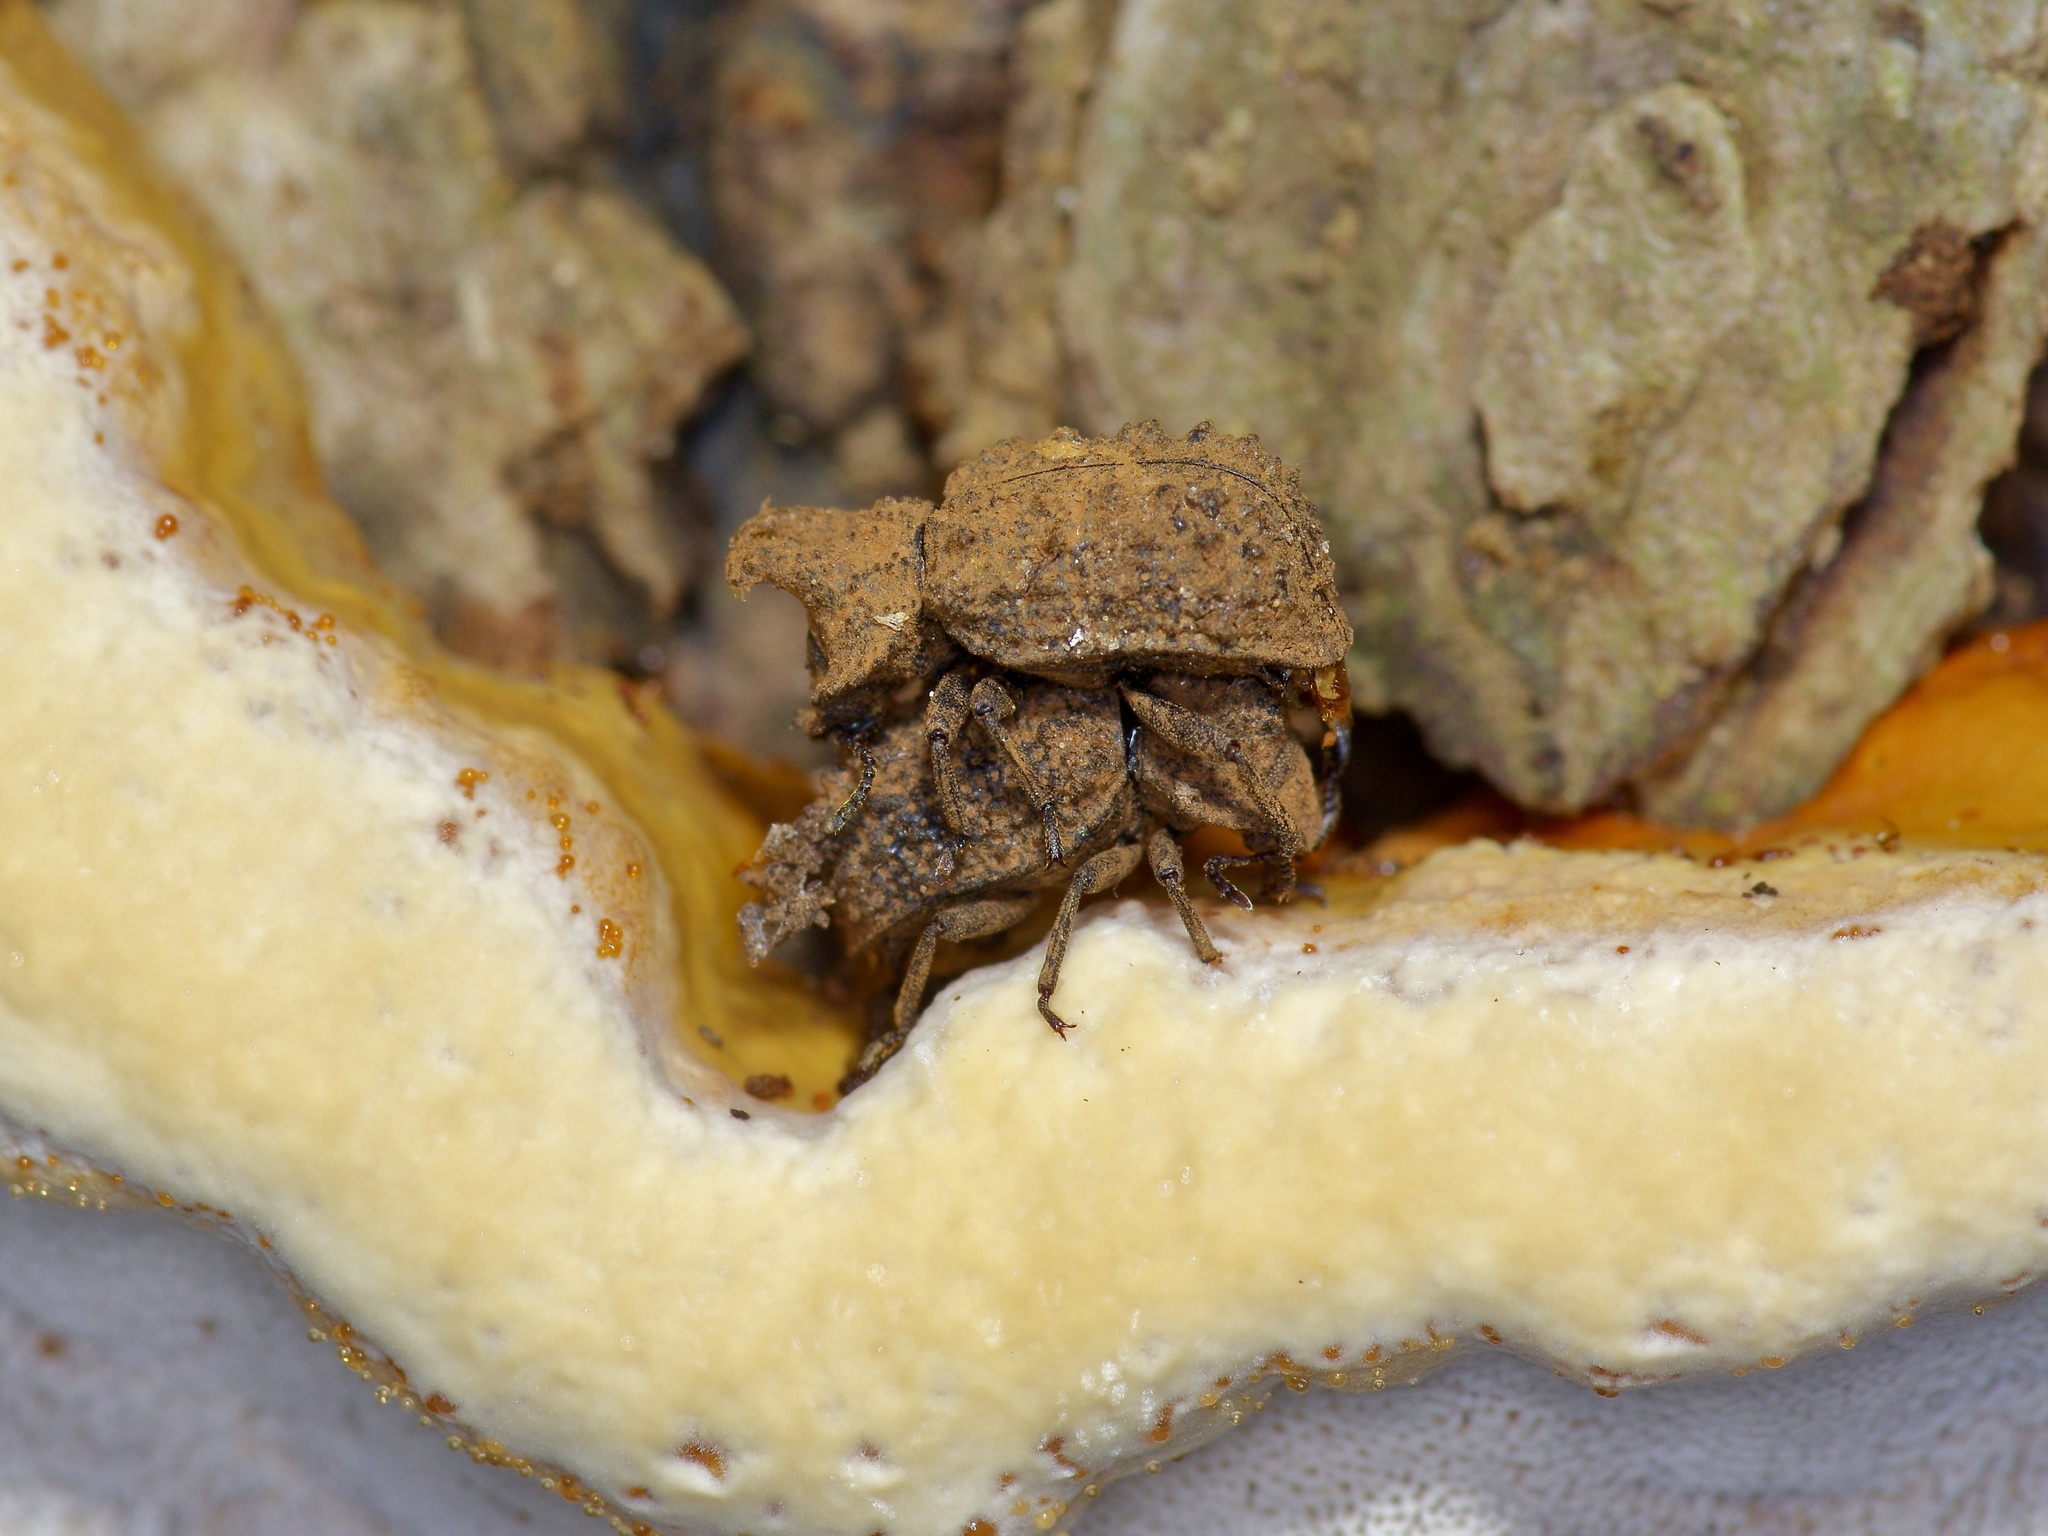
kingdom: Animalia
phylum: Arthropoda
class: Insecta
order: Coleoptera
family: Tenebrionidae
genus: Gnatocerus
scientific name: Gnatocerus cornutus
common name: Broad-horned flour beetle
